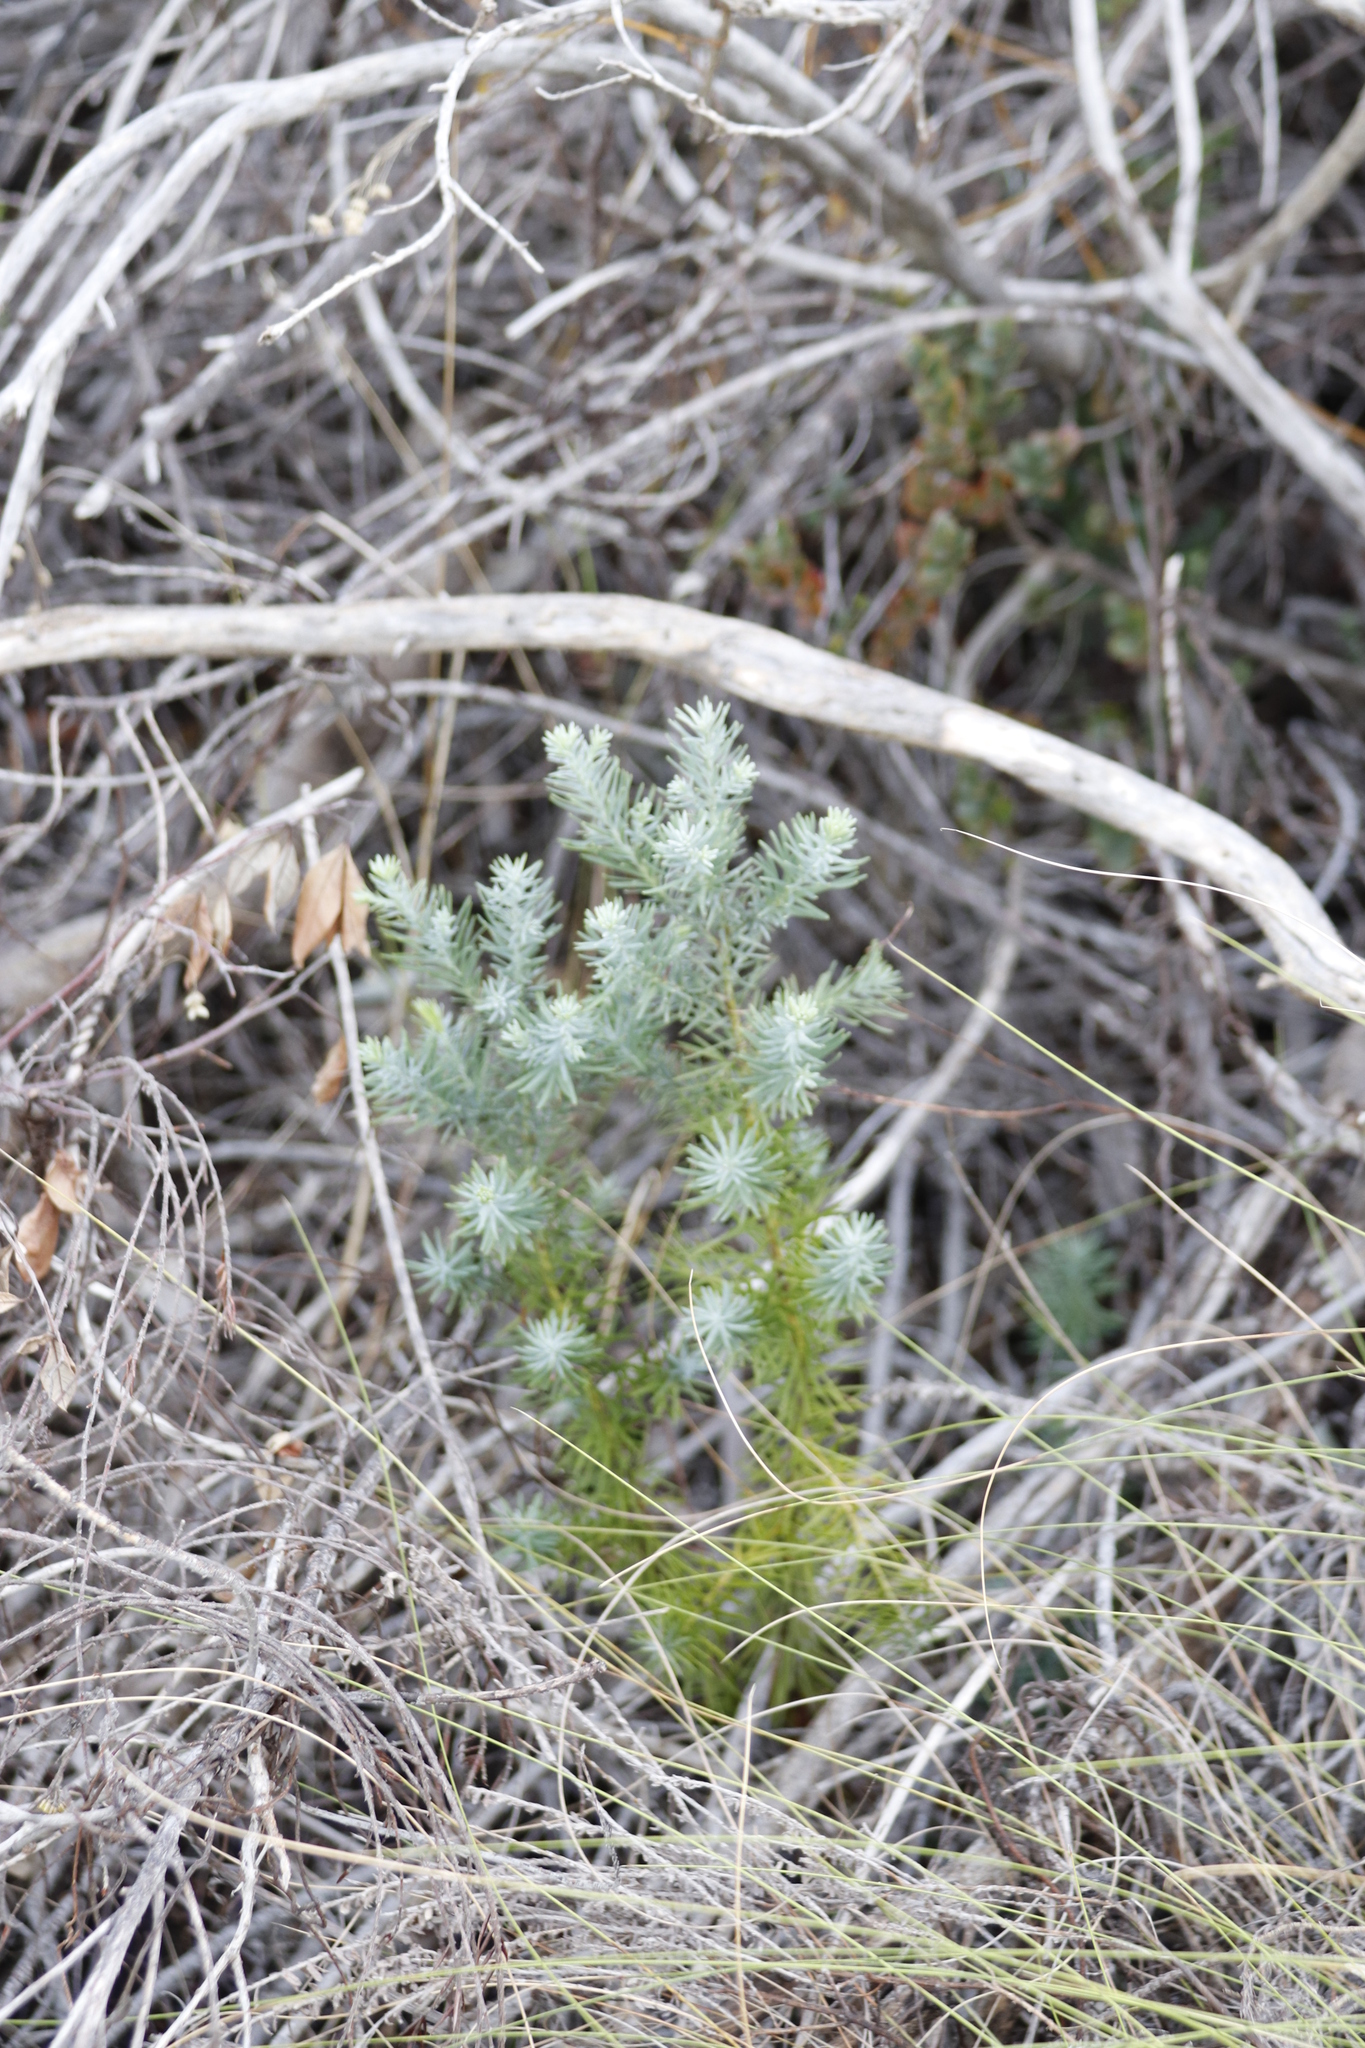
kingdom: Plantae
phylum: Tracheophyta
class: Pinopsida
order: Pinales
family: Cupressaceae
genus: Widdringtonia
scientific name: Widdringtonia nodiflora
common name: Cape cypress
